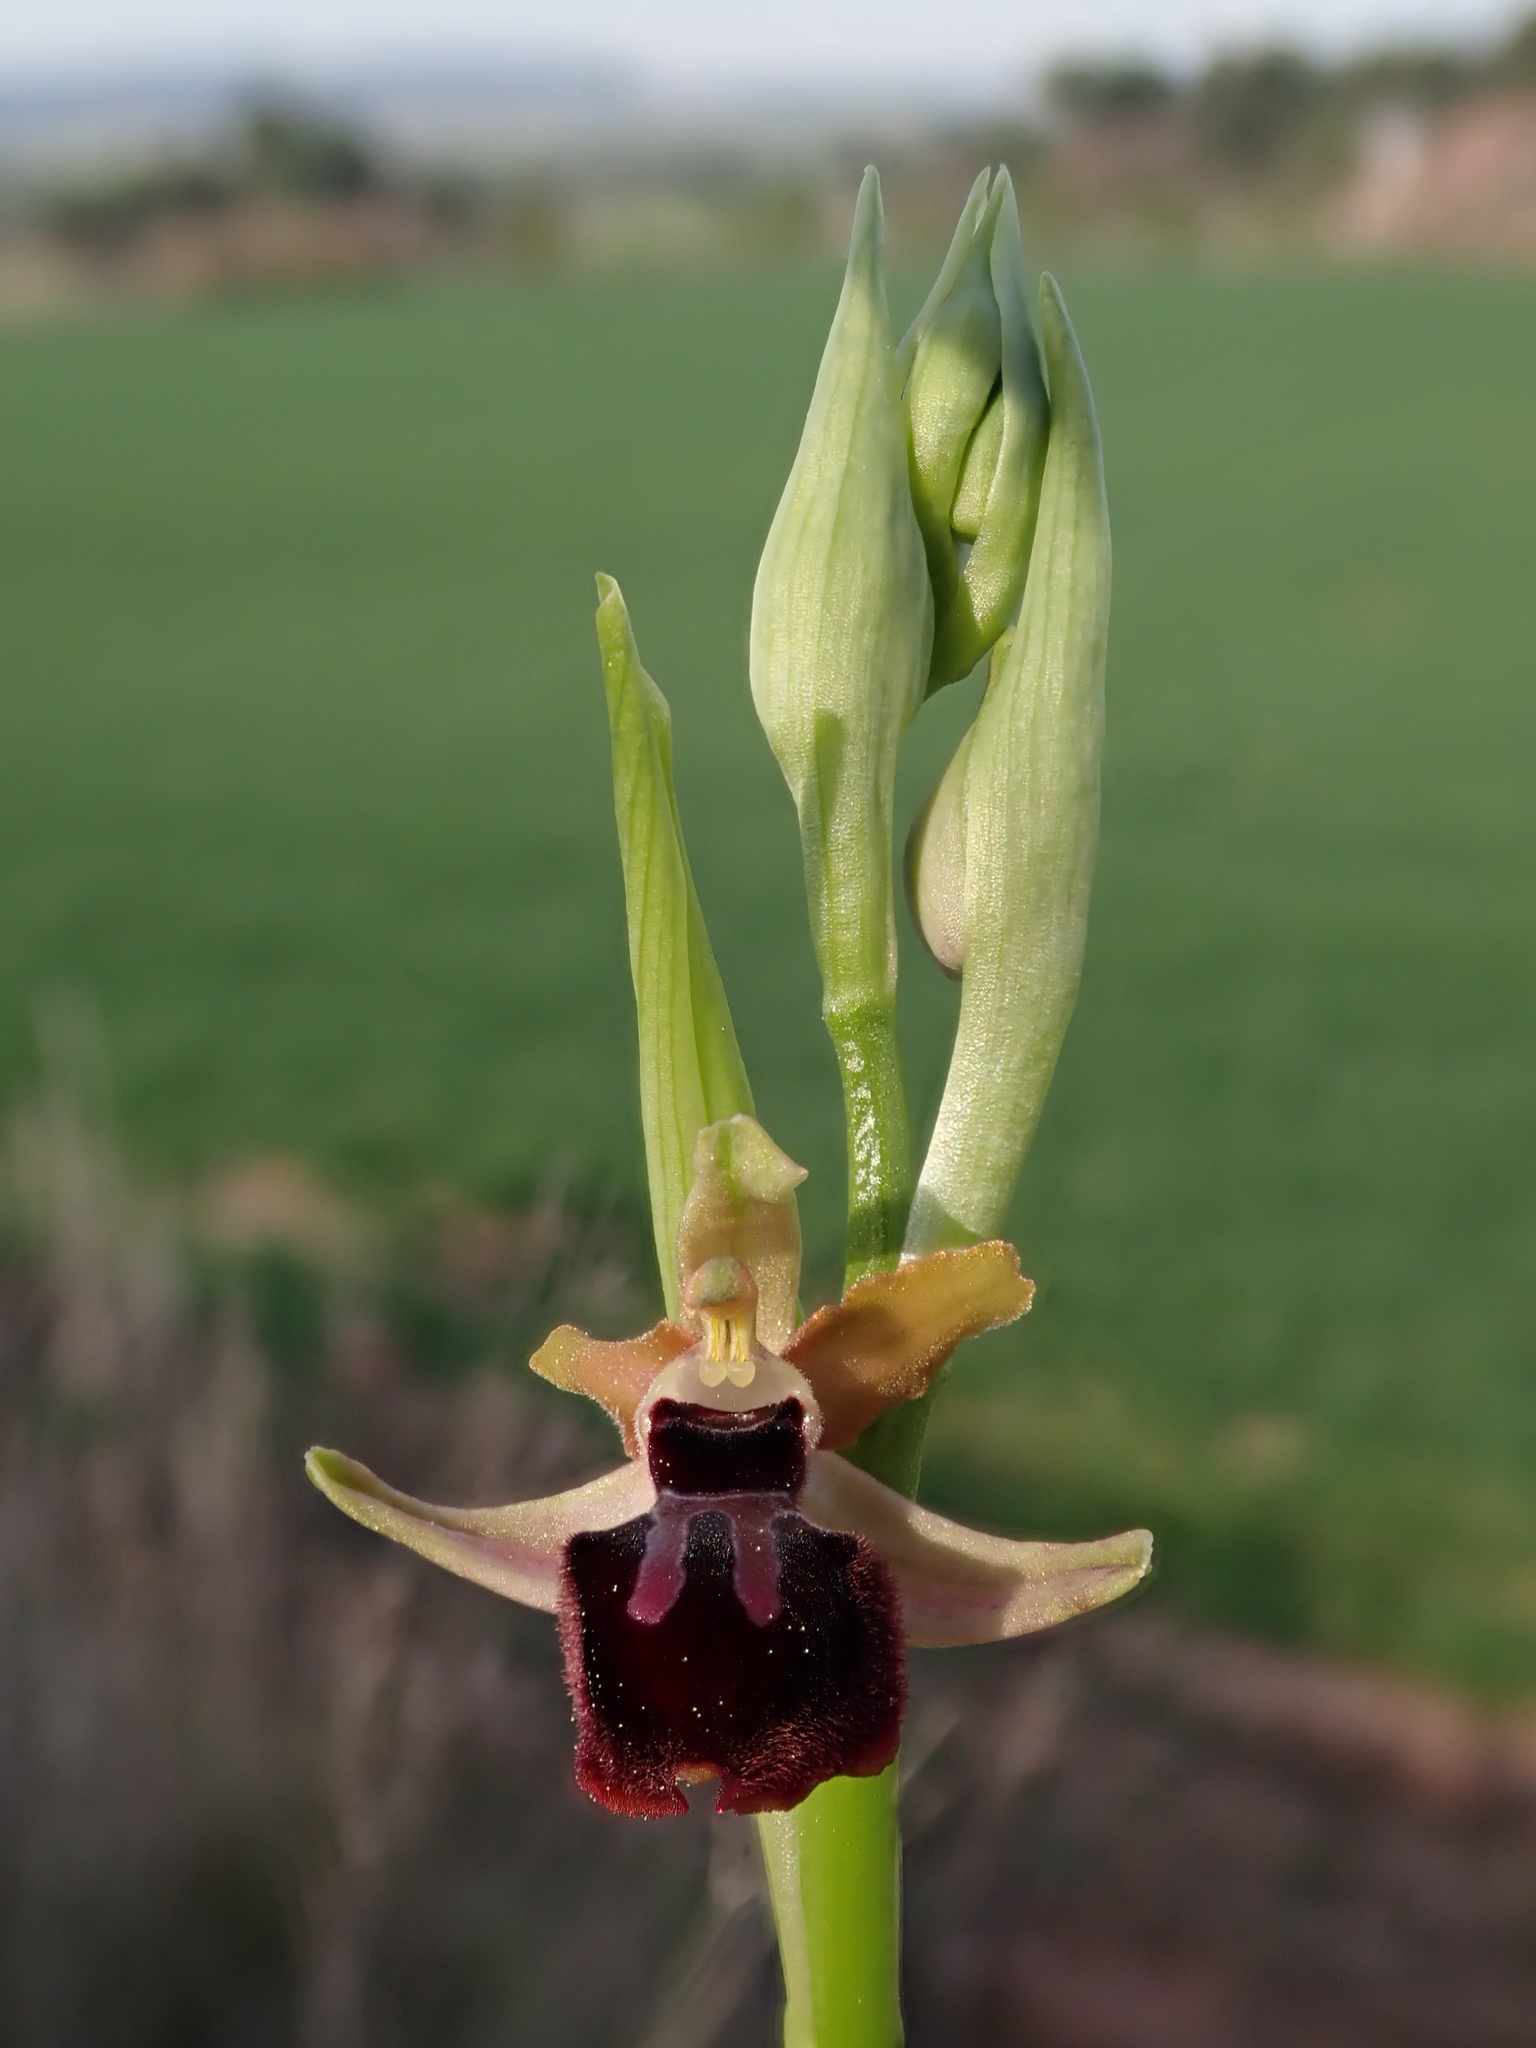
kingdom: Plantae
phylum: Tracheophyta
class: Liliopsida
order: Asparagales
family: Orchidaceae
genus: Ophrys
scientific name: Ophrys sphegodes
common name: Early spider-orchid
